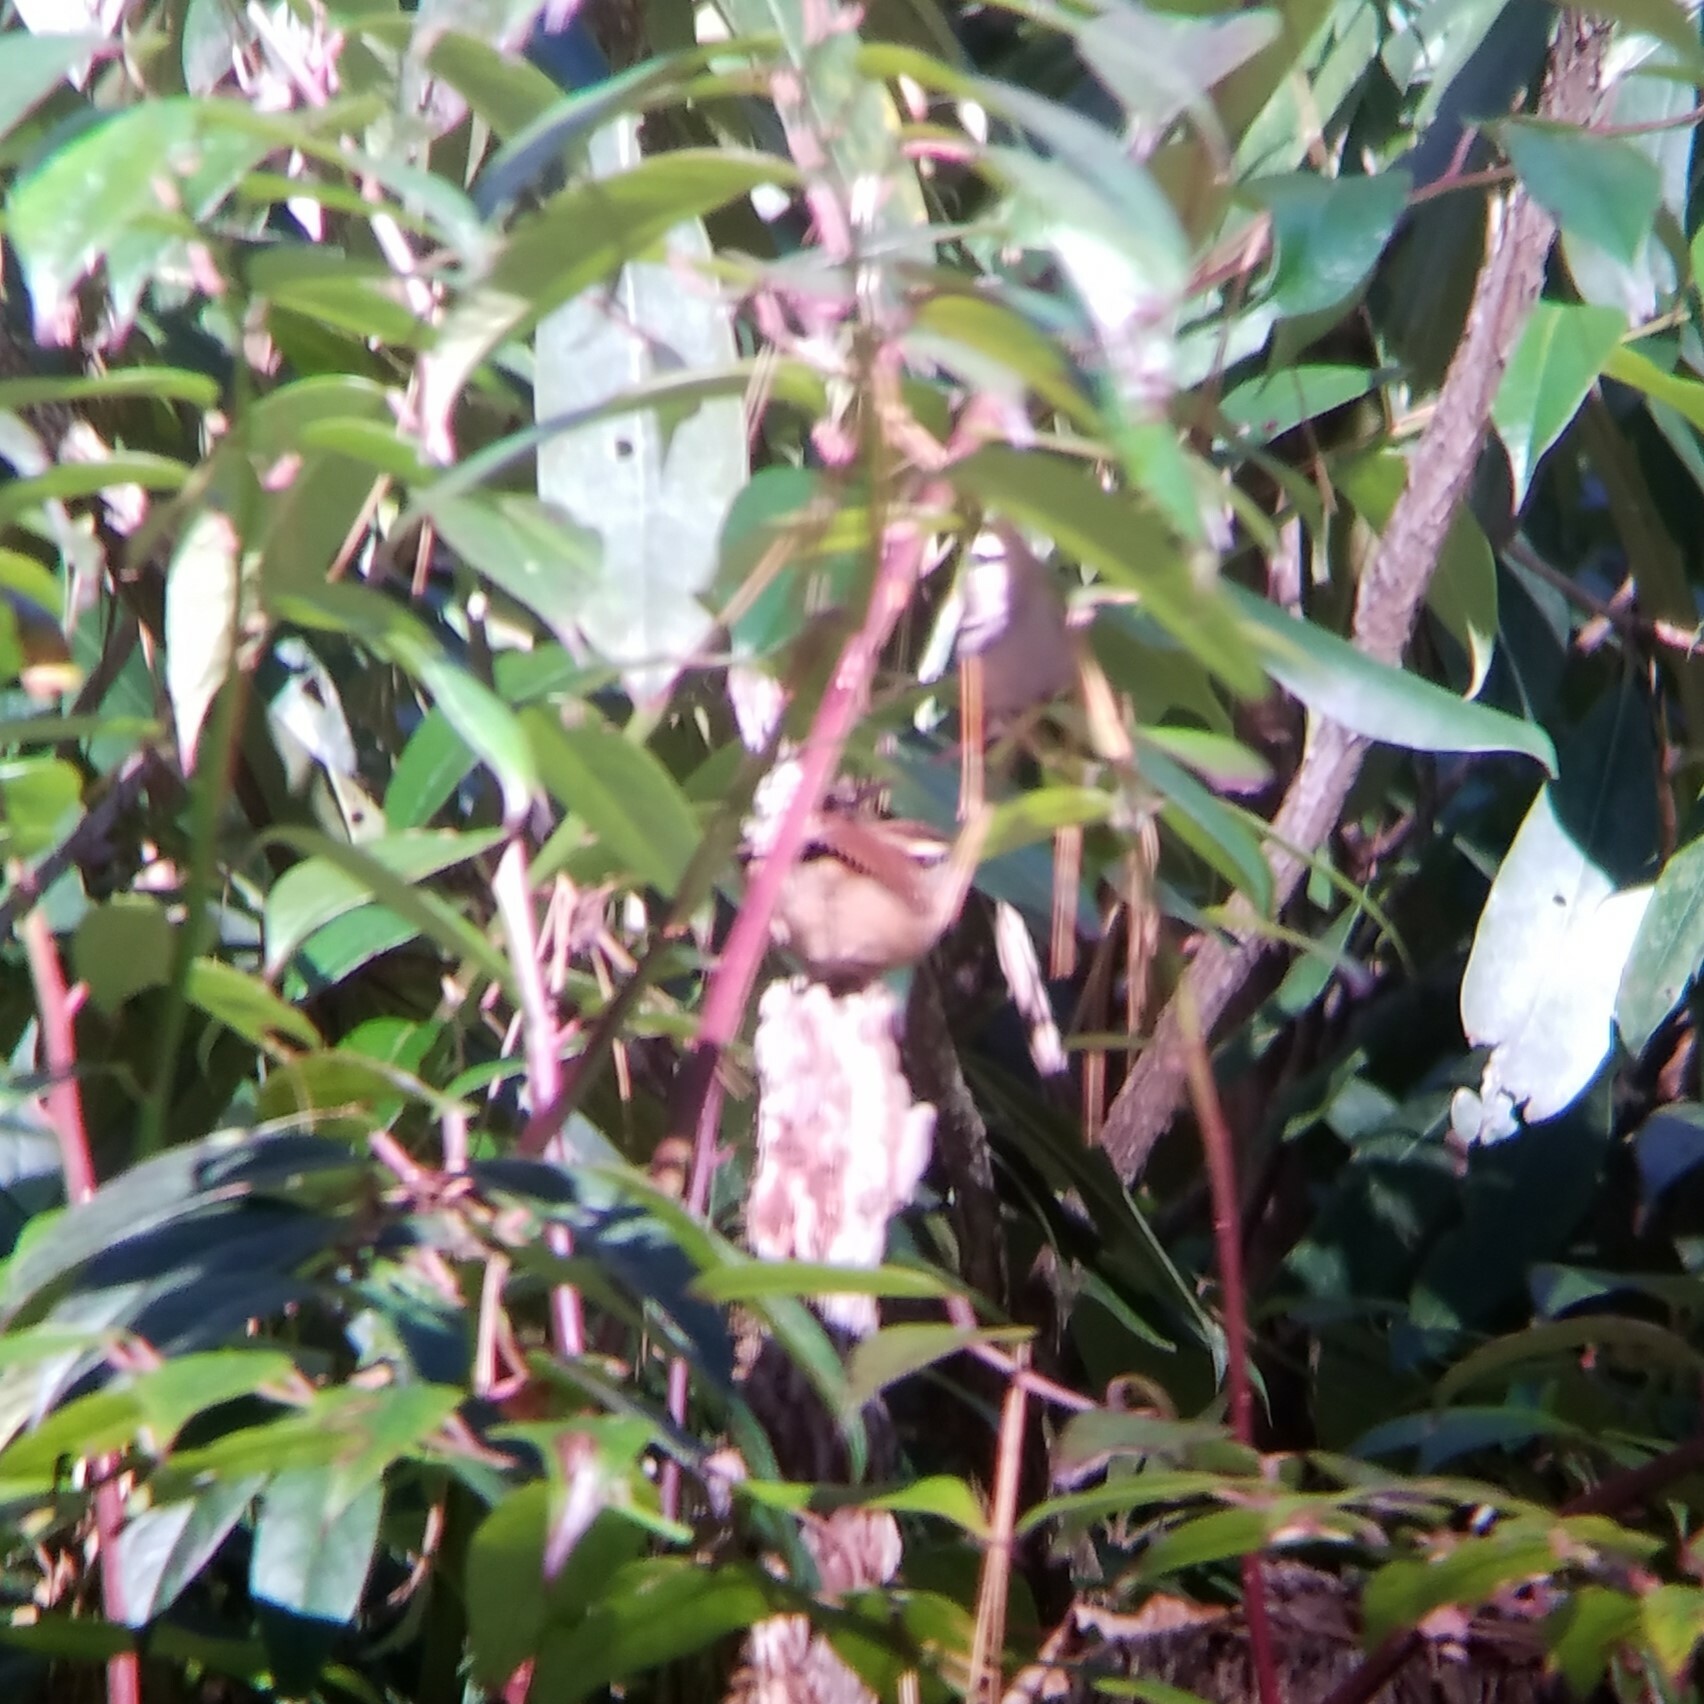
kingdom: Animalia
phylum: Chordata
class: Aves
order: Passeriformes
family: Troglodytidae
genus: Thryothorus
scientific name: Thryothorus ludovicianus
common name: Carolina wren
